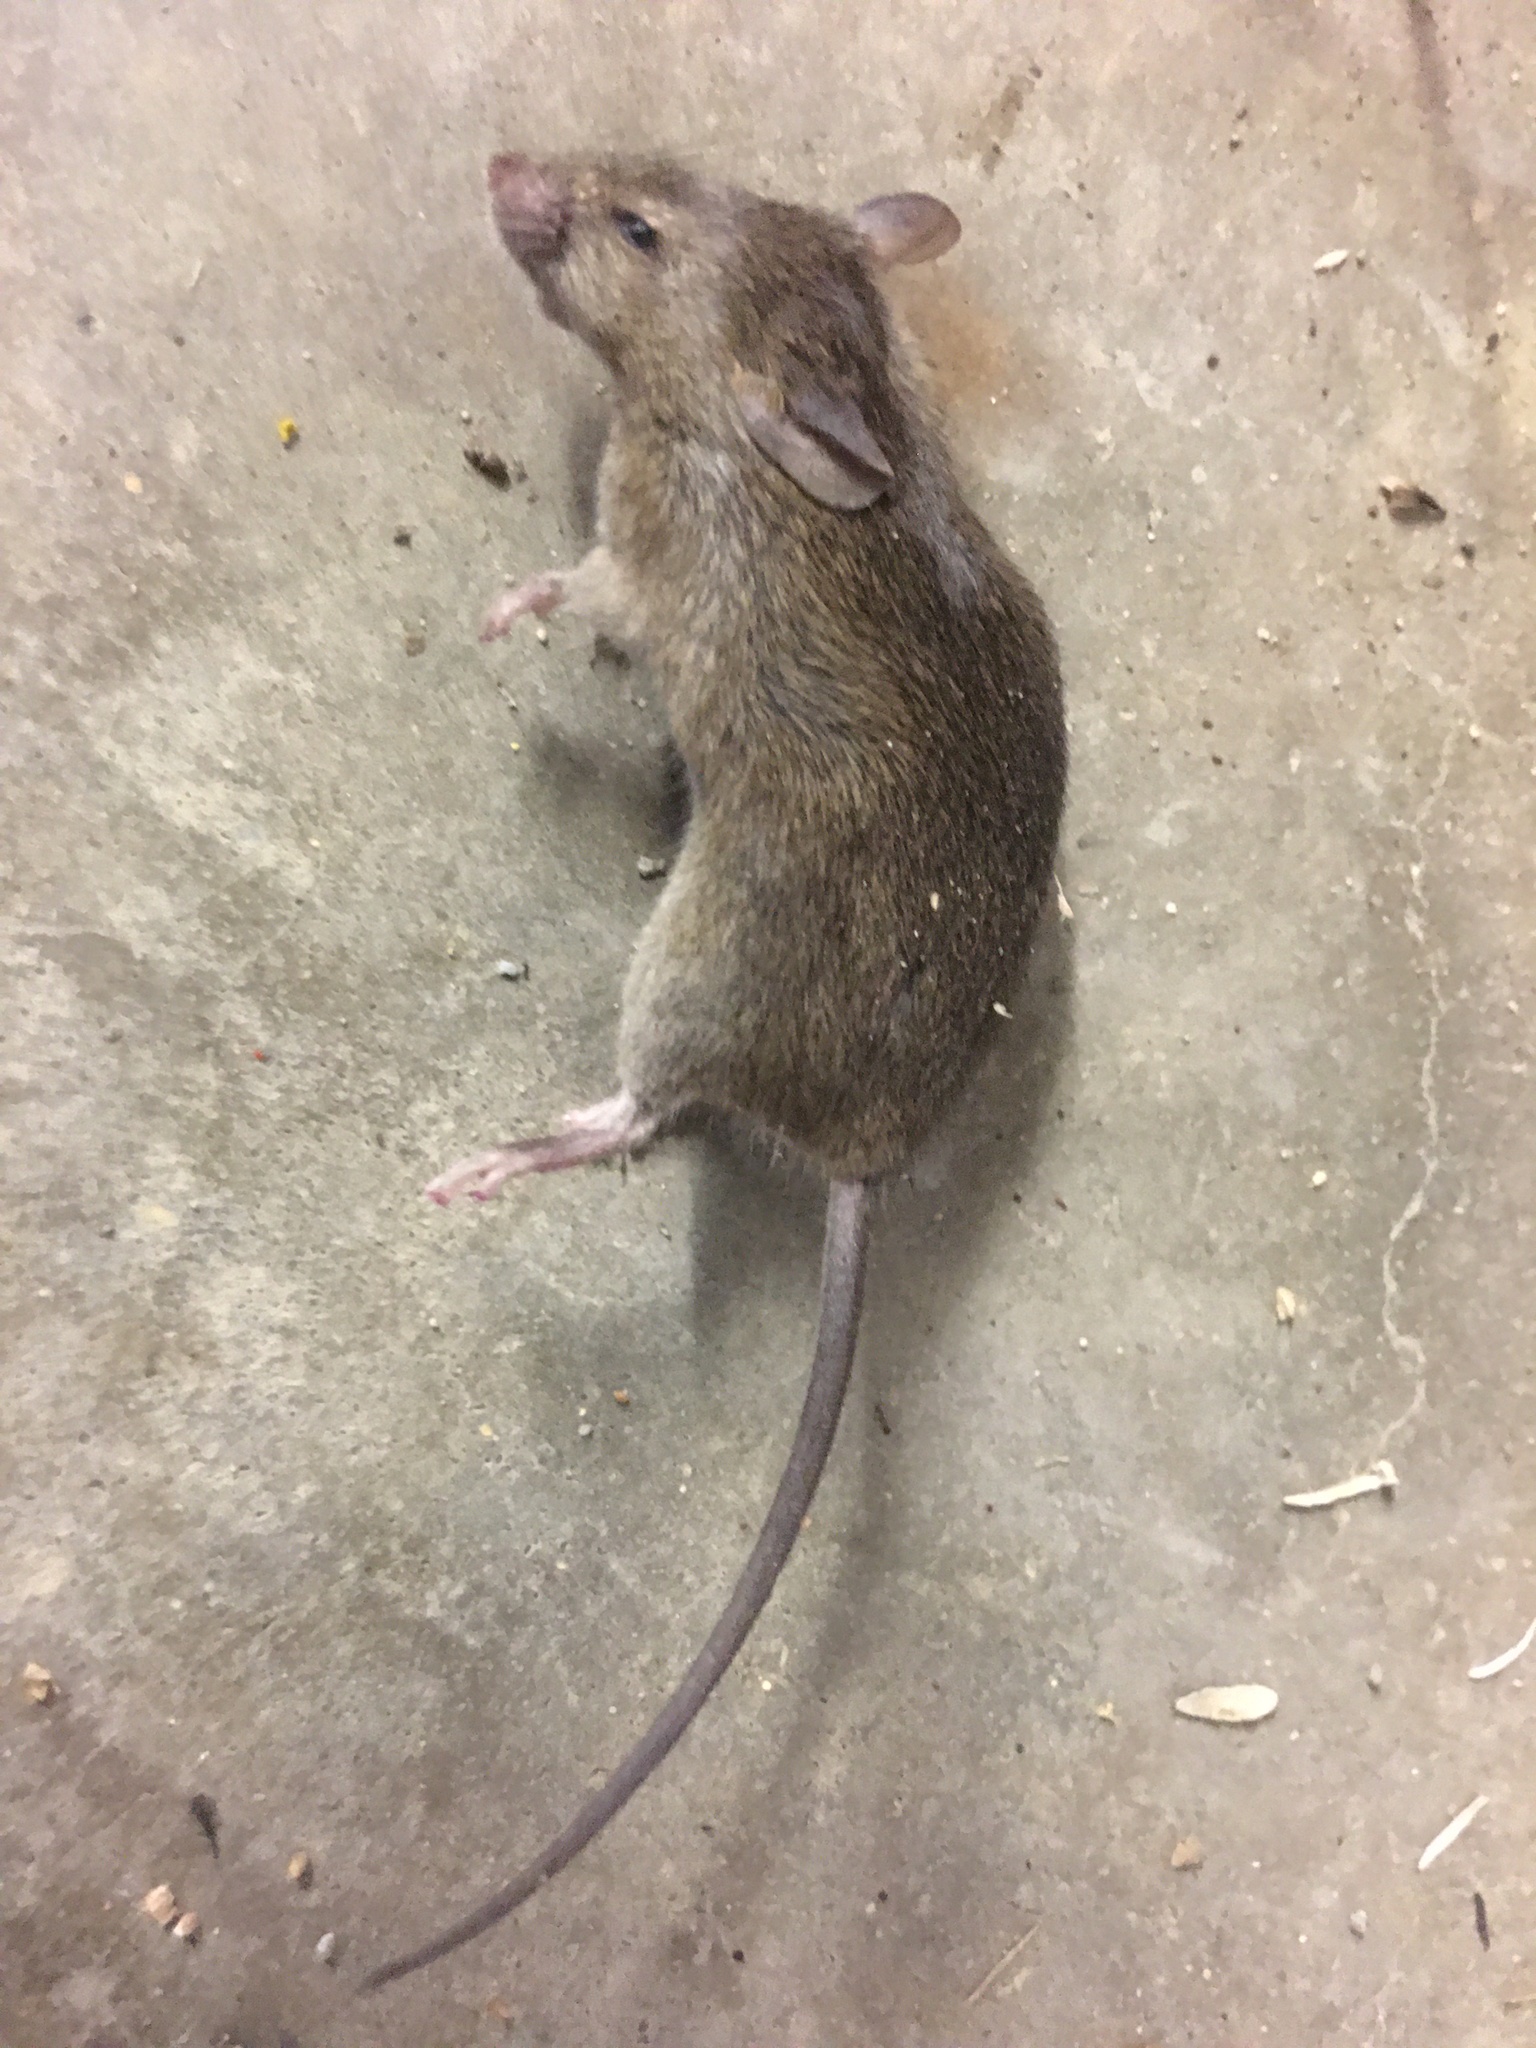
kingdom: Animalia
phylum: Chordata
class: Mammalia
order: Rodentia
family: Muridae
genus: Mus
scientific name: Mus musculus
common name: House mouse
